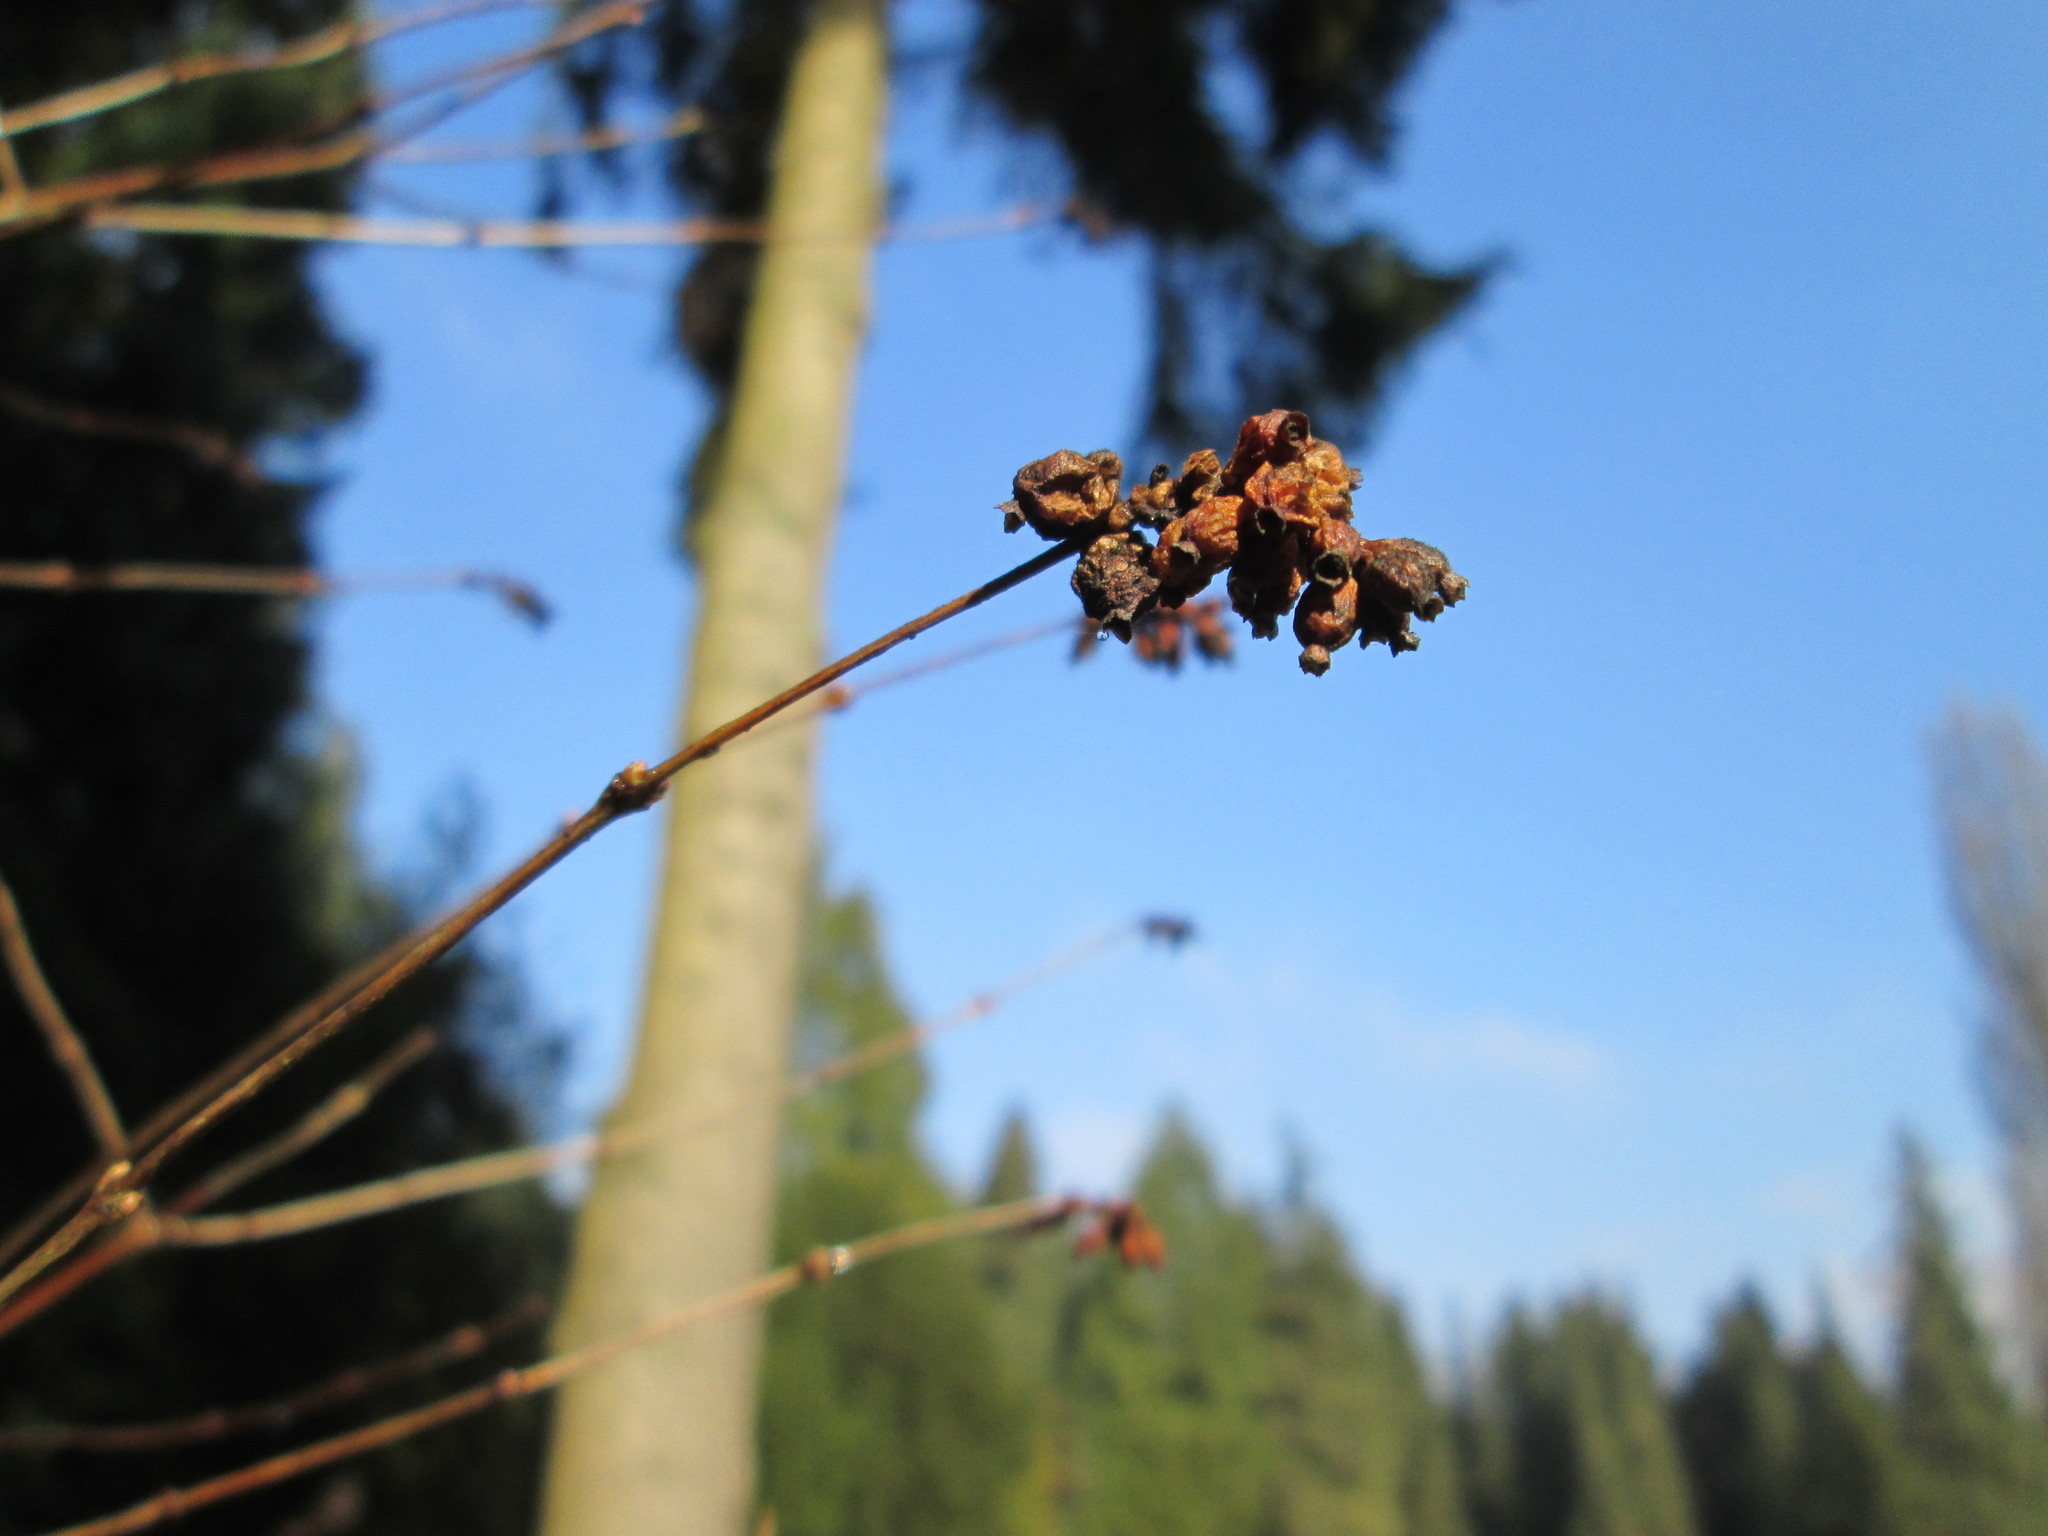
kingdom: Plantae
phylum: Tracheophyta
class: Magnoliopsida
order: Dipsacales
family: Caprifoliaceae
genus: Symphoricarpos
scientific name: Symphoricarpos albus
